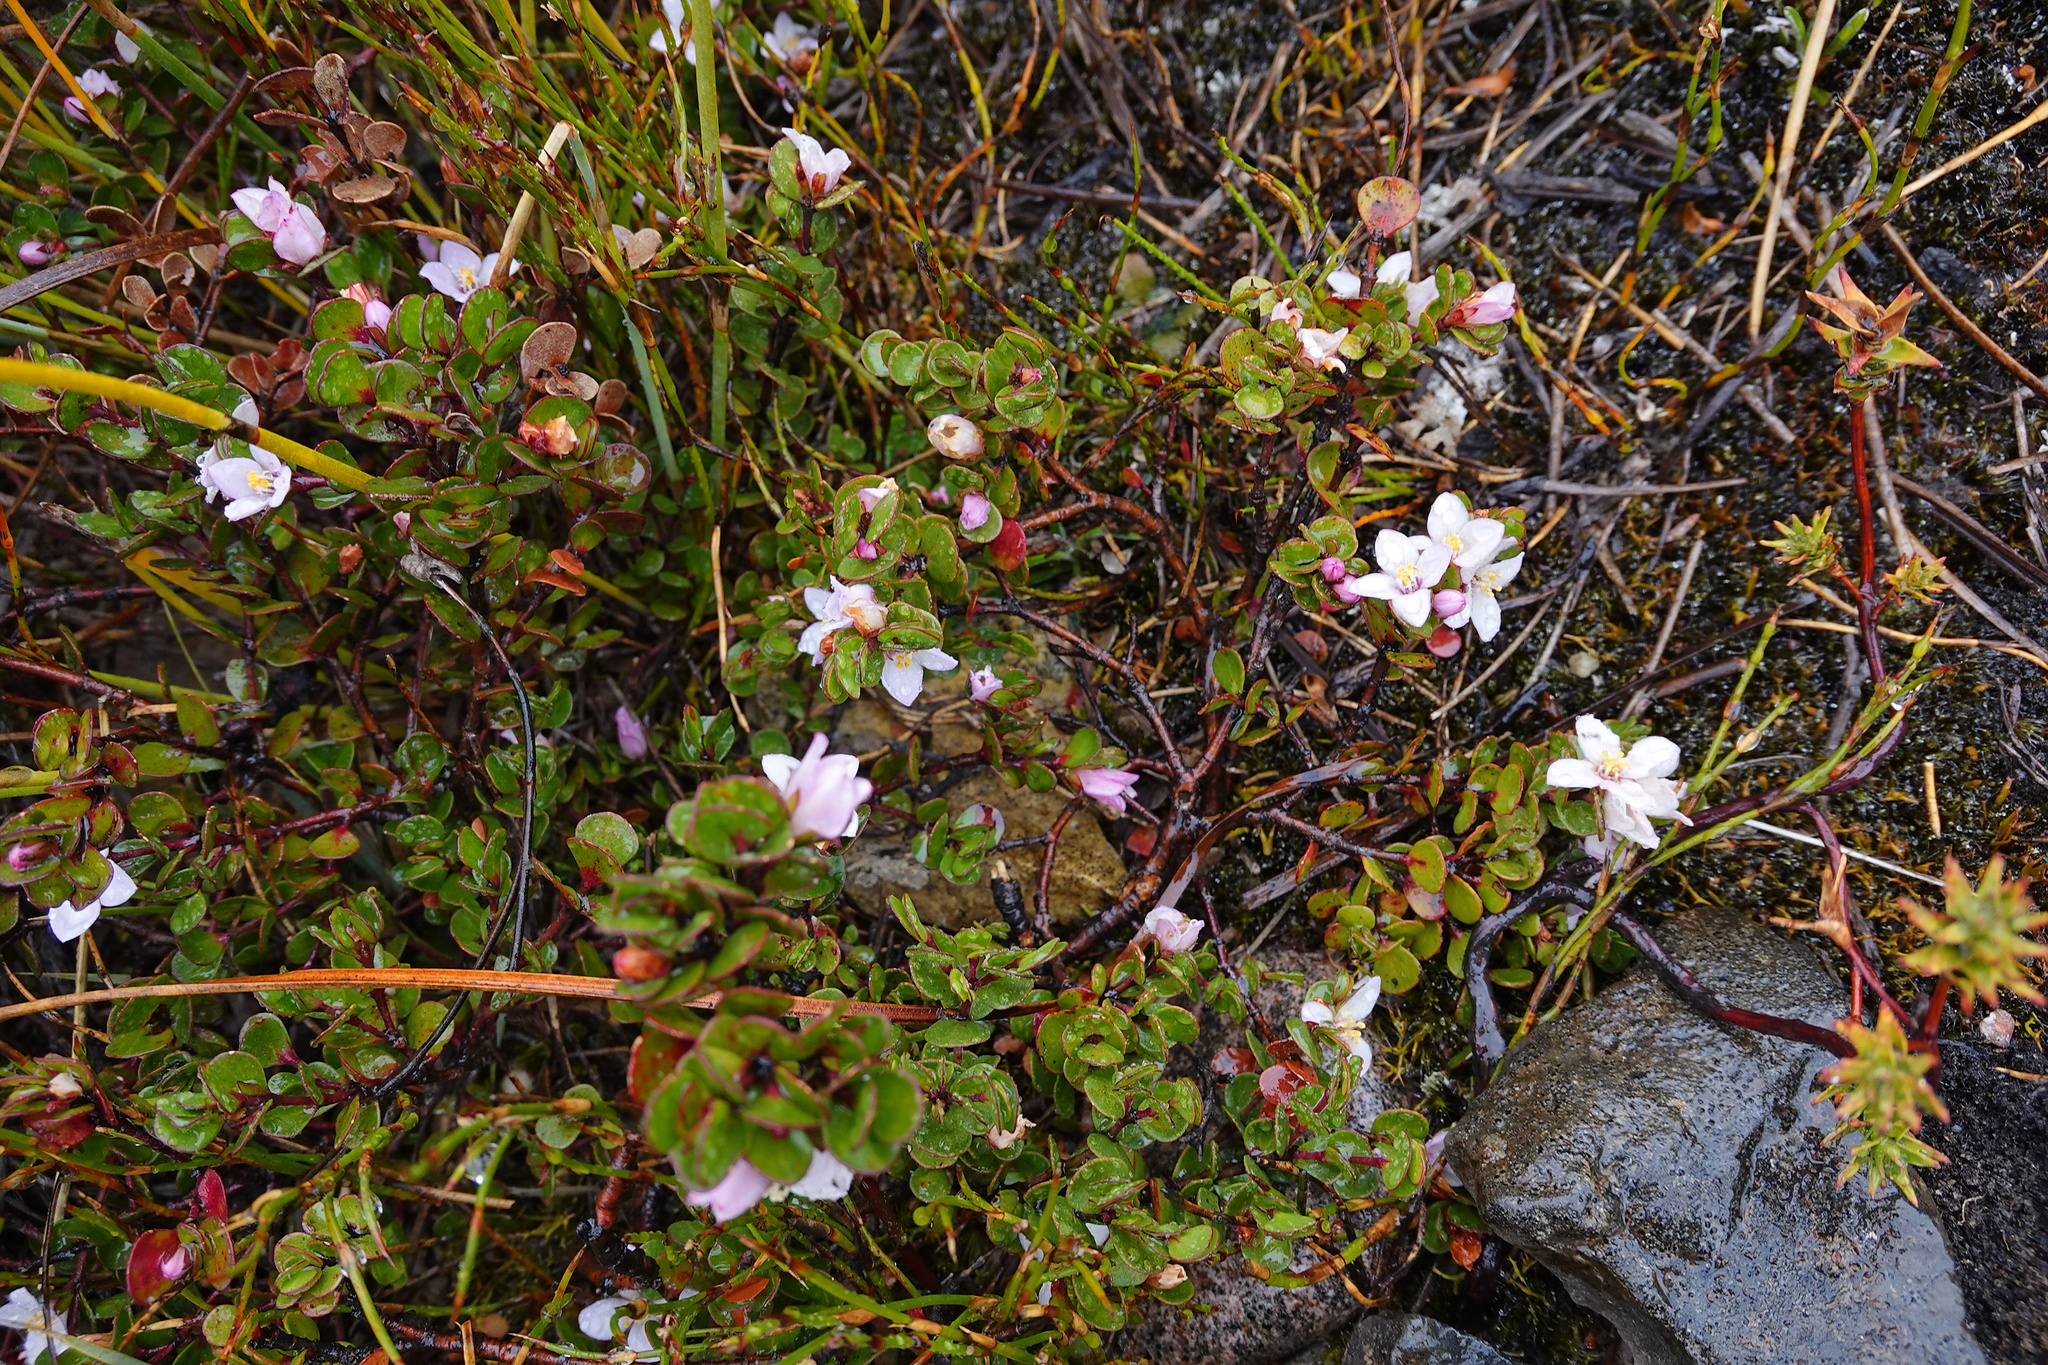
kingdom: Plantae
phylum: Tracheophyta
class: Magnoliopsida
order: Sapindales
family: Rutaceae
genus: Boronia
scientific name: Boronia rhomboidea
